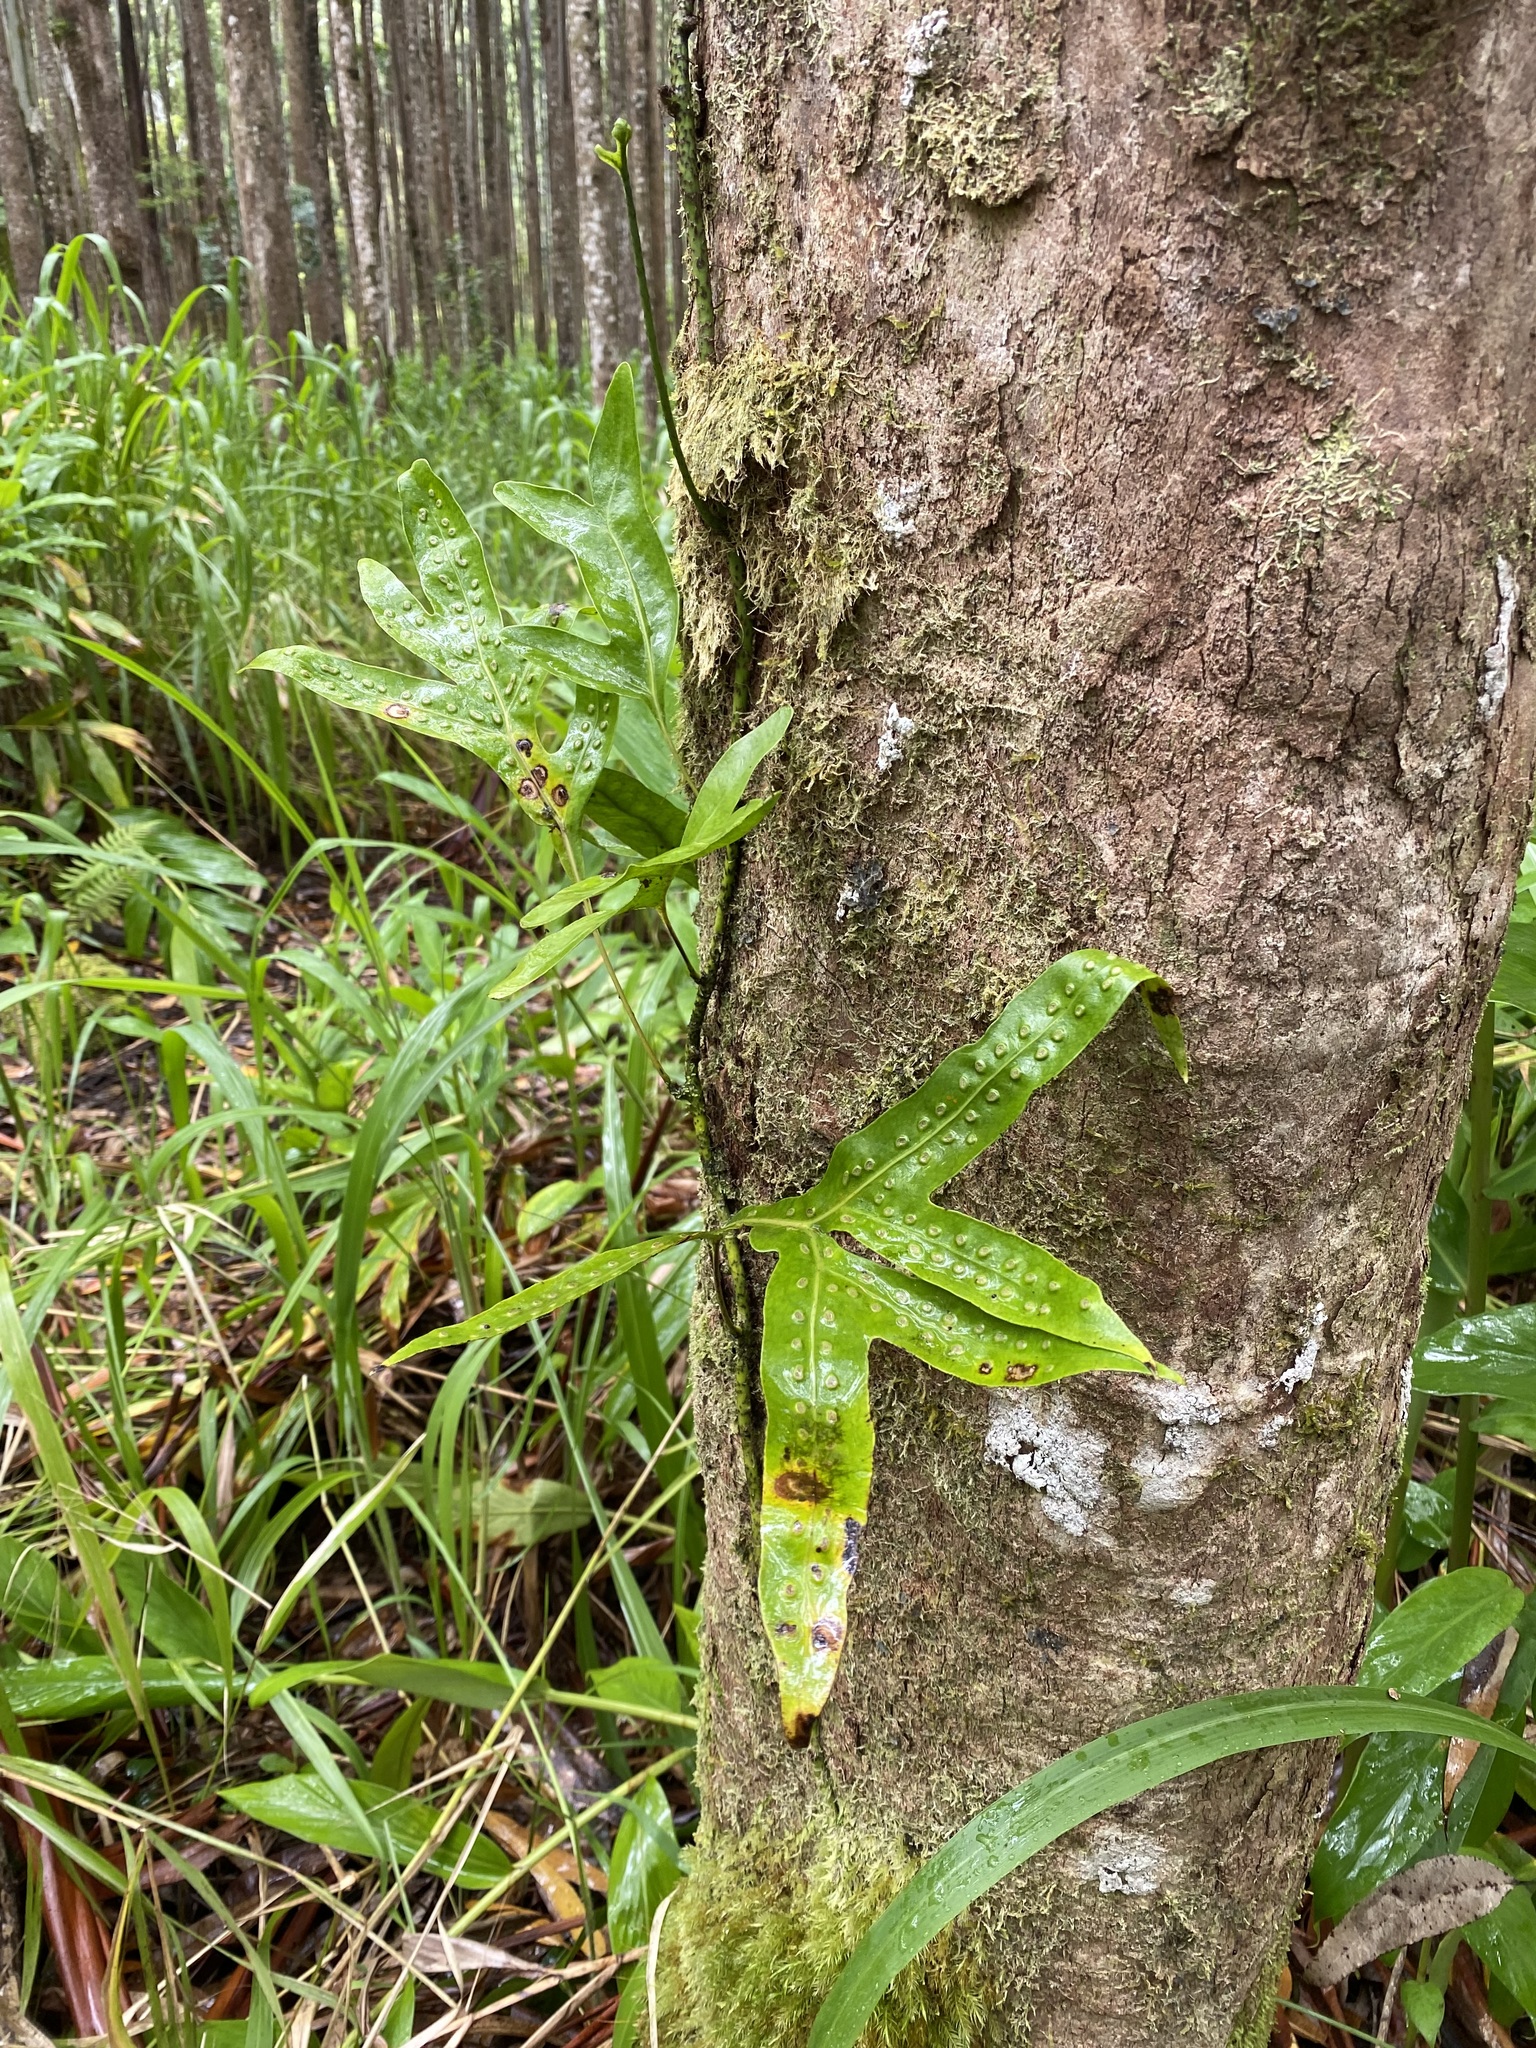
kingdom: Plantae
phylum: Tracheophyta
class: Polypodiopsida
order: Polypodiales
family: Polypodiaceae
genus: Microsorum
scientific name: Microsorum grossum
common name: Musk fern
